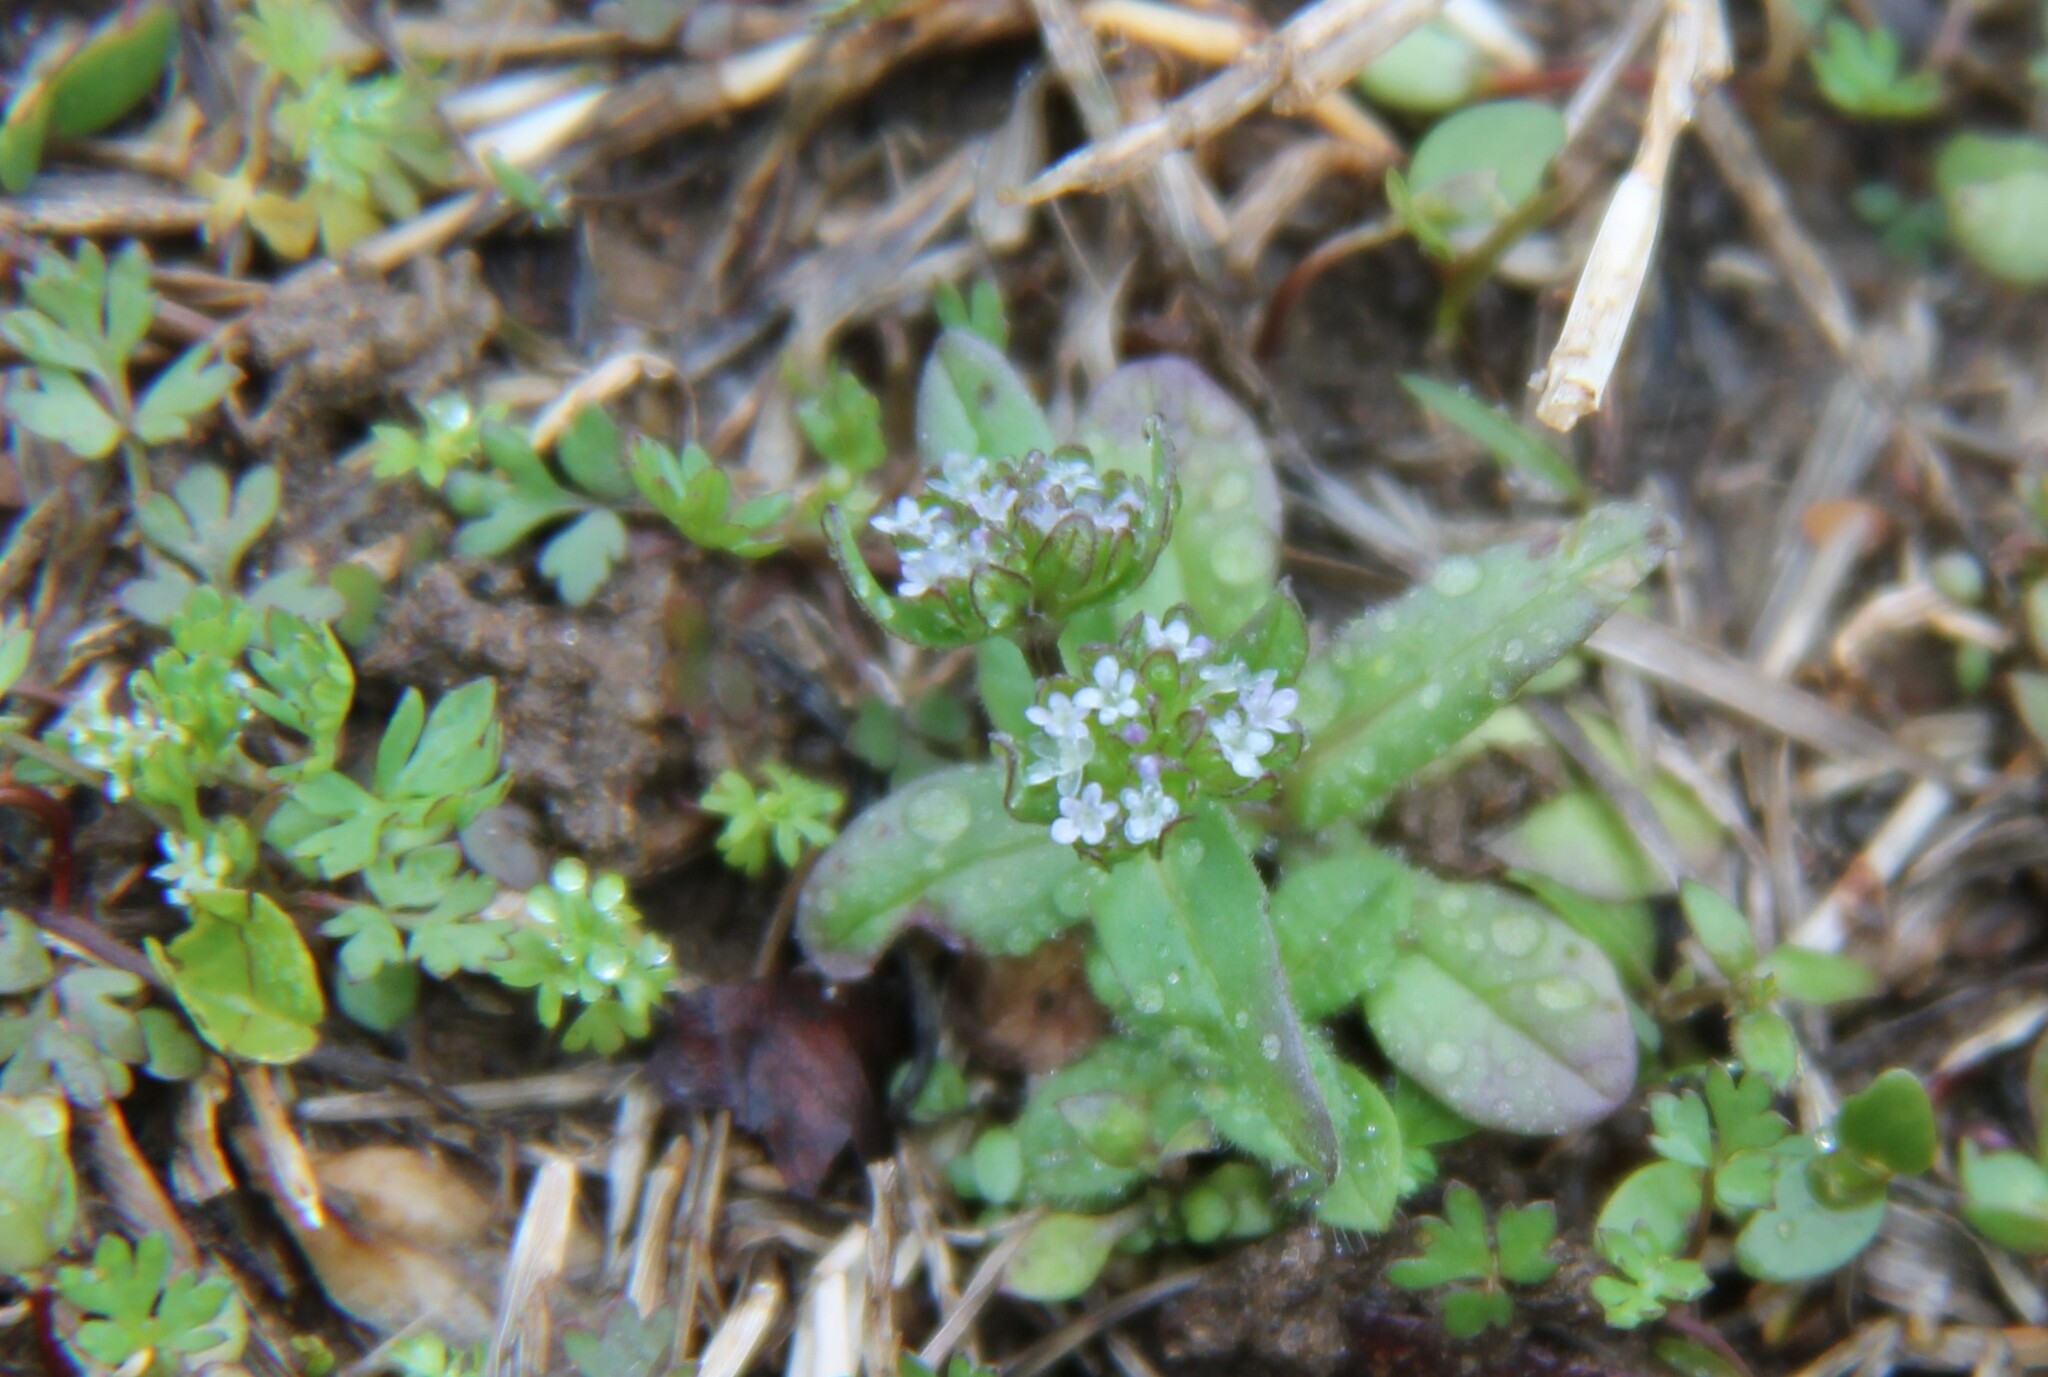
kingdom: Plantae
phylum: Tracheophyta
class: Magnoliopsida
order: Dipsacales
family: Caprifoliaceae
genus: Valerianella
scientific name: Valerianella locusta
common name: Common cornsalad
